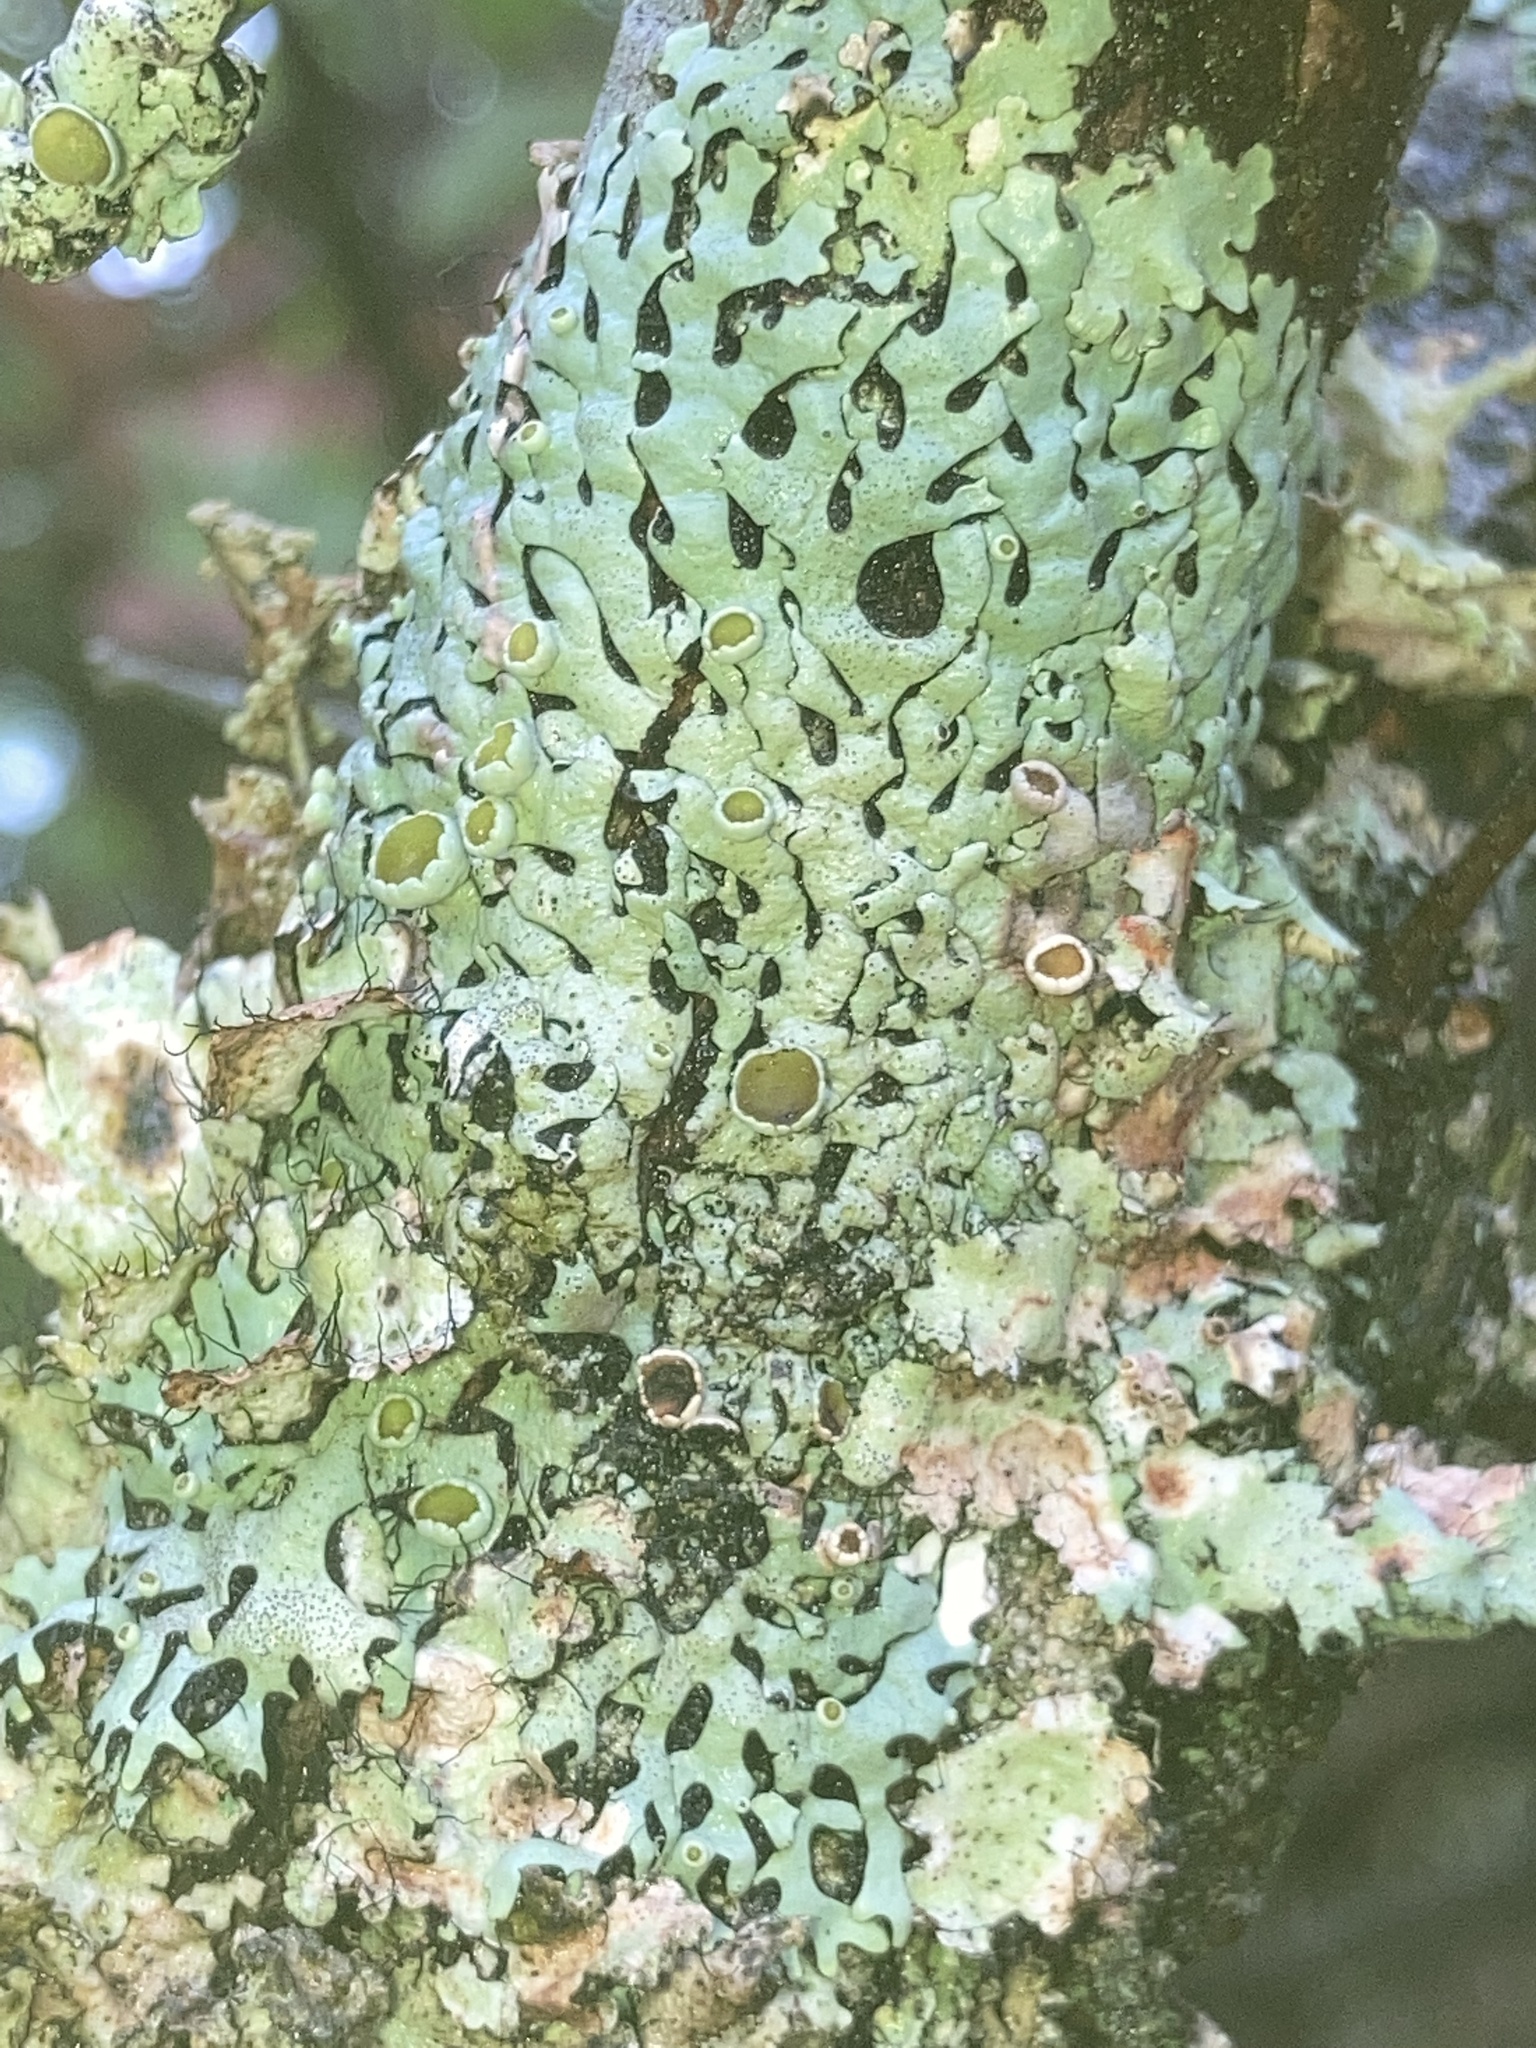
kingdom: Fungi
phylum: Ascomycota
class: Lecanoromycetes
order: Lecanorales
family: Parmeliaceae
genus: Hypotrachyna
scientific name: Hypotrachyna livida
